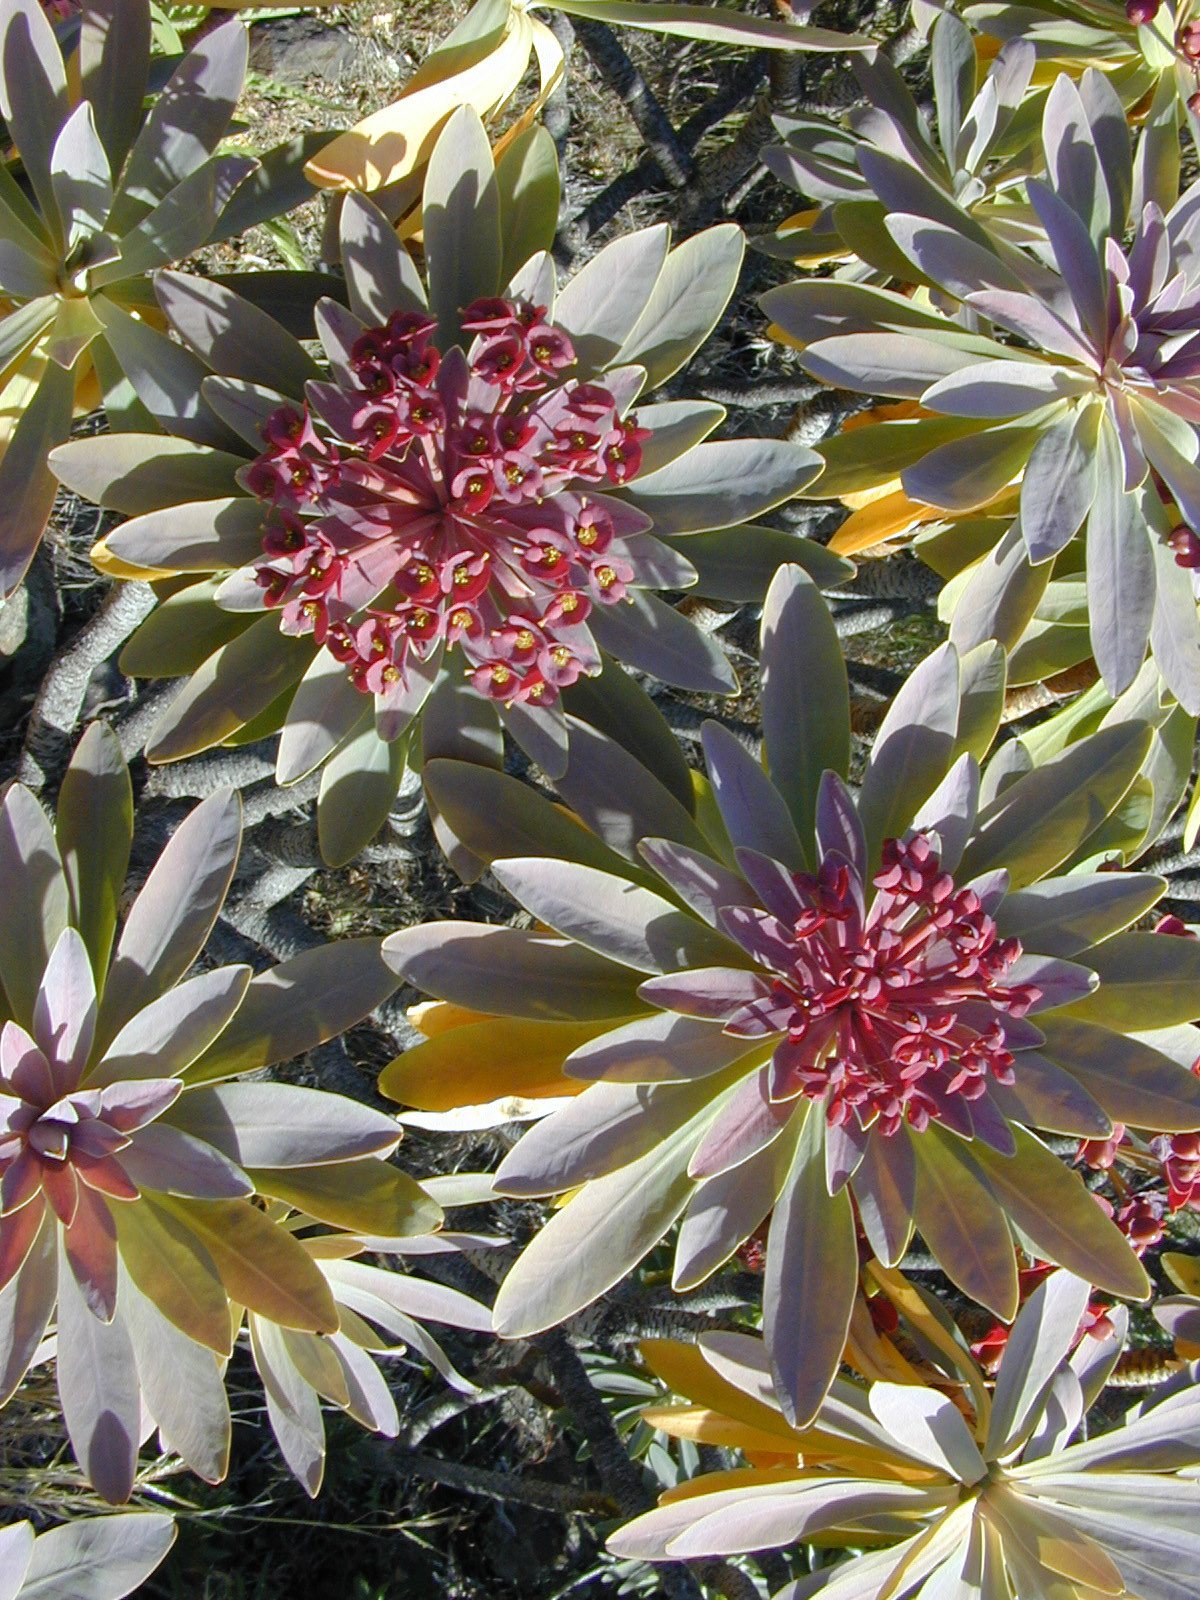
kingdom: Plantae
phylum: Tracheophyta
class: Magnoliopsida
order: Malpighiales
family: Euphorbiaceae
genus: Euphorbia
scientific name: Euphorbia atropurpurea
